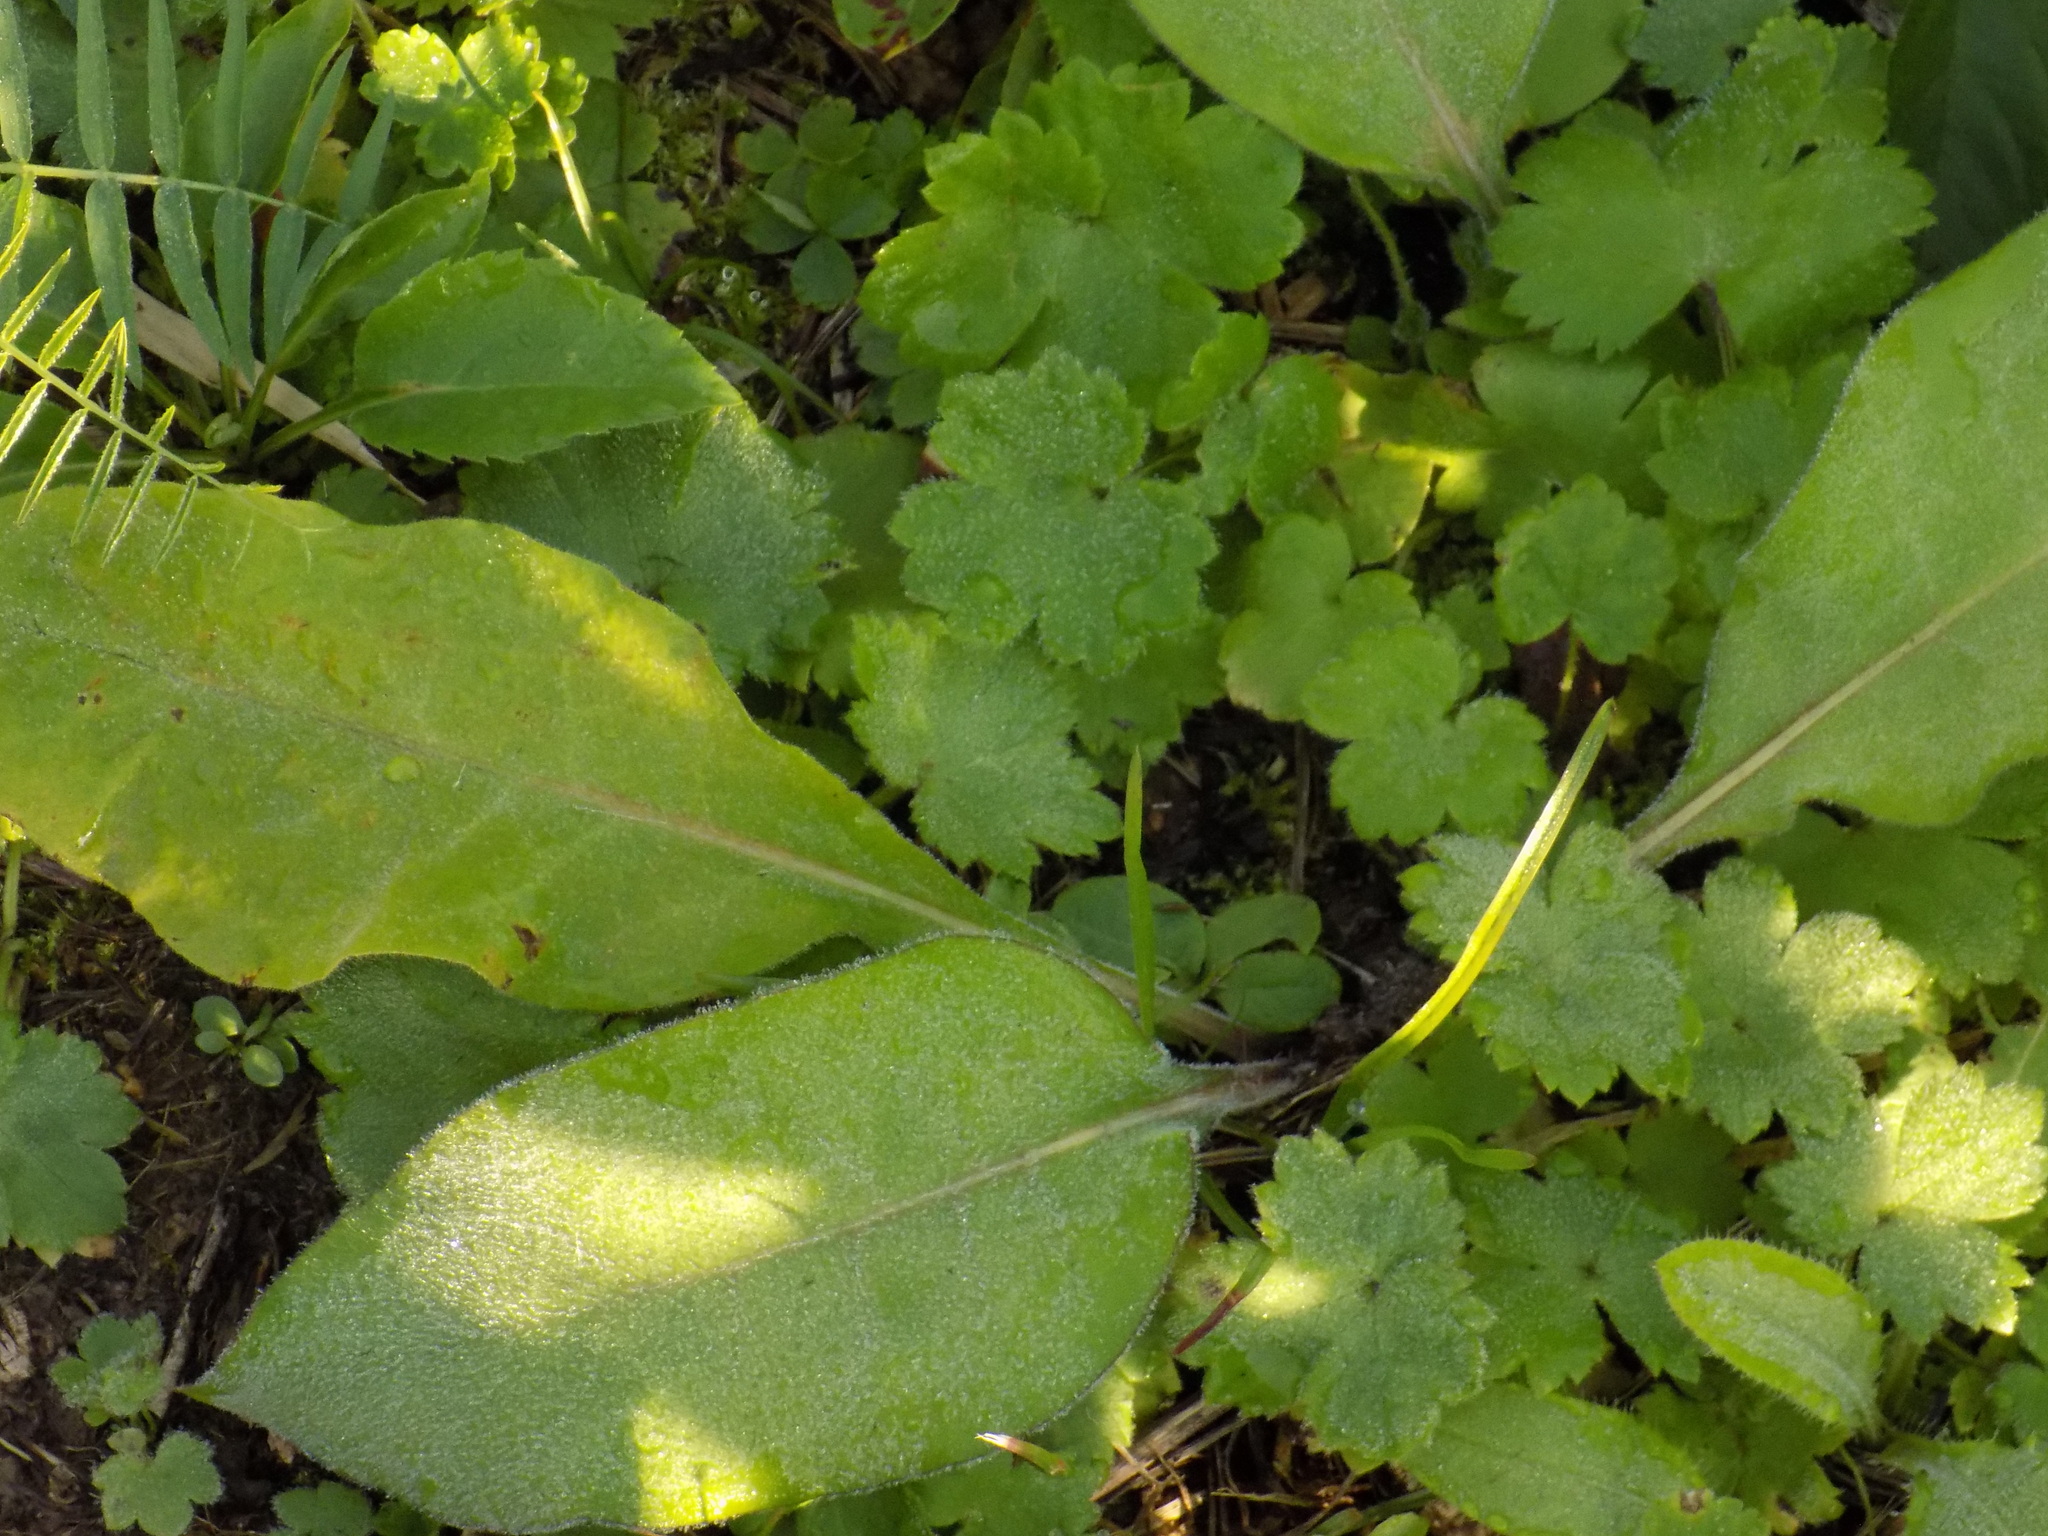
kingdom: Plantae
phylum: Tracheophyta
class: Magnoliopsida
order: Boraginales
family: Boraginaceae
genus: Pulmonaria
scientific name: Pulmonaria mollis
